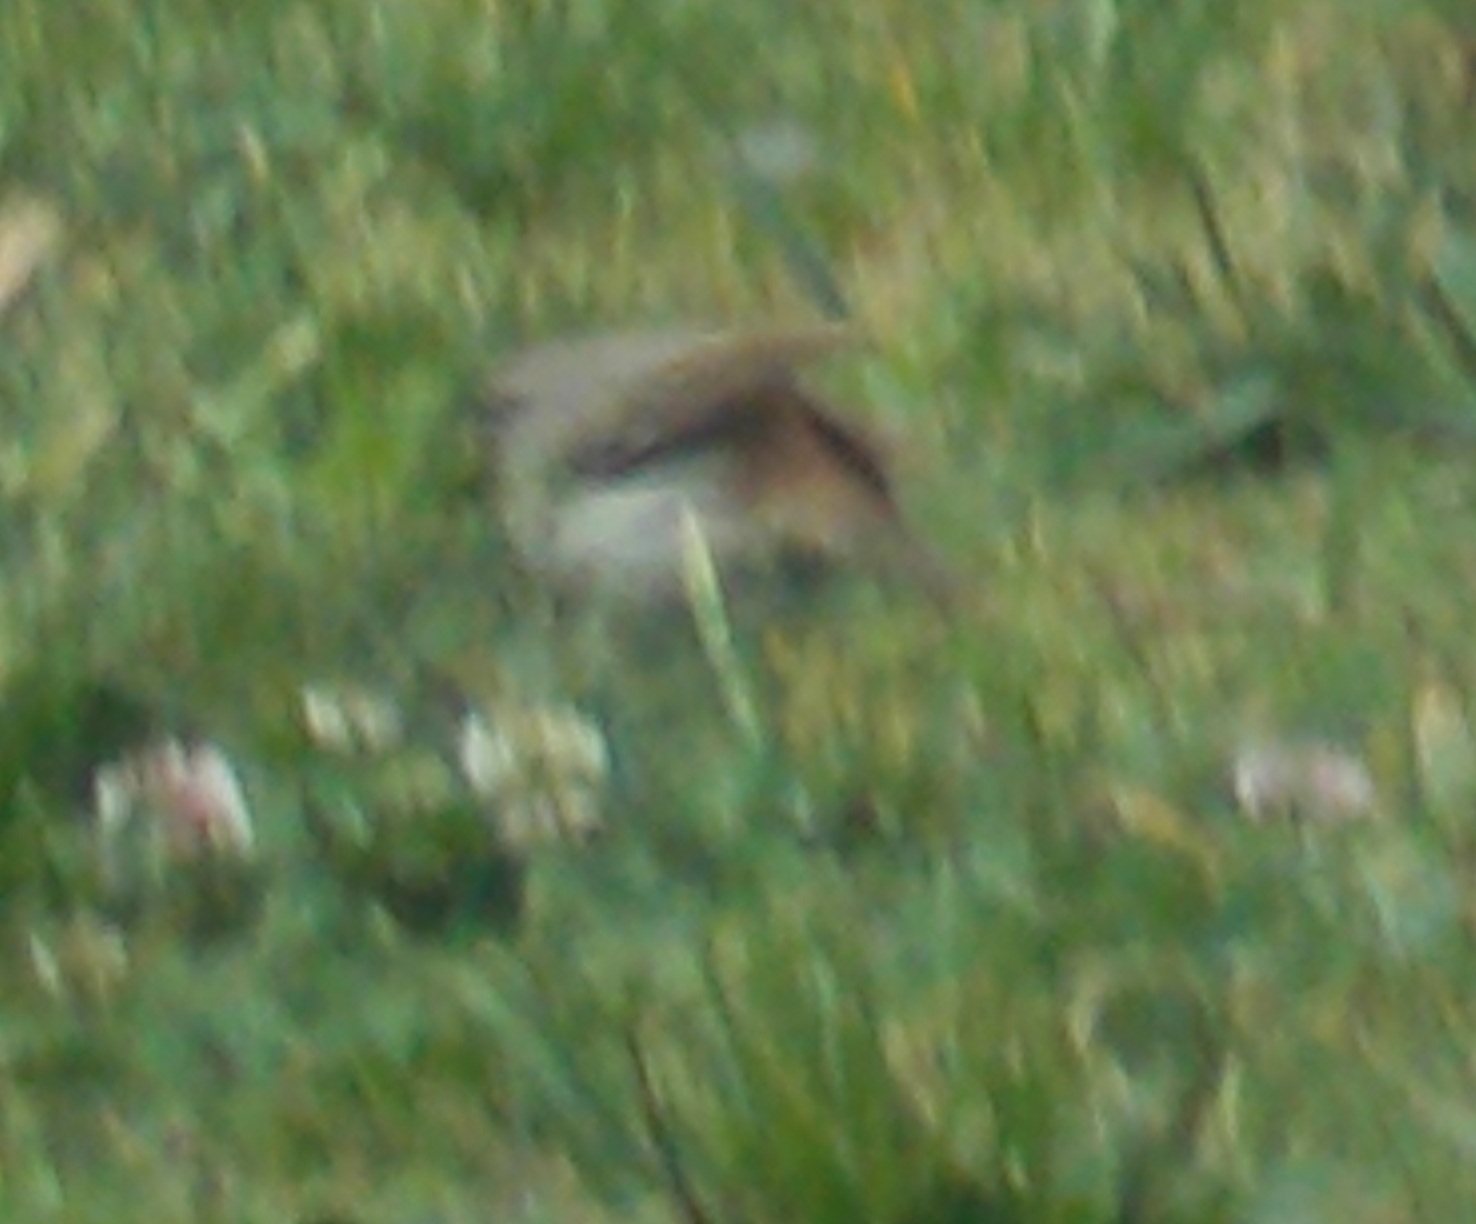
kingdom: Animalia
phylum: Chordata
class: Aves
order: Passeriformes
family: Troglodytidae
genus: Salpinctes
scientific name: Salpinctes obsoletus
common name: Rock wren
